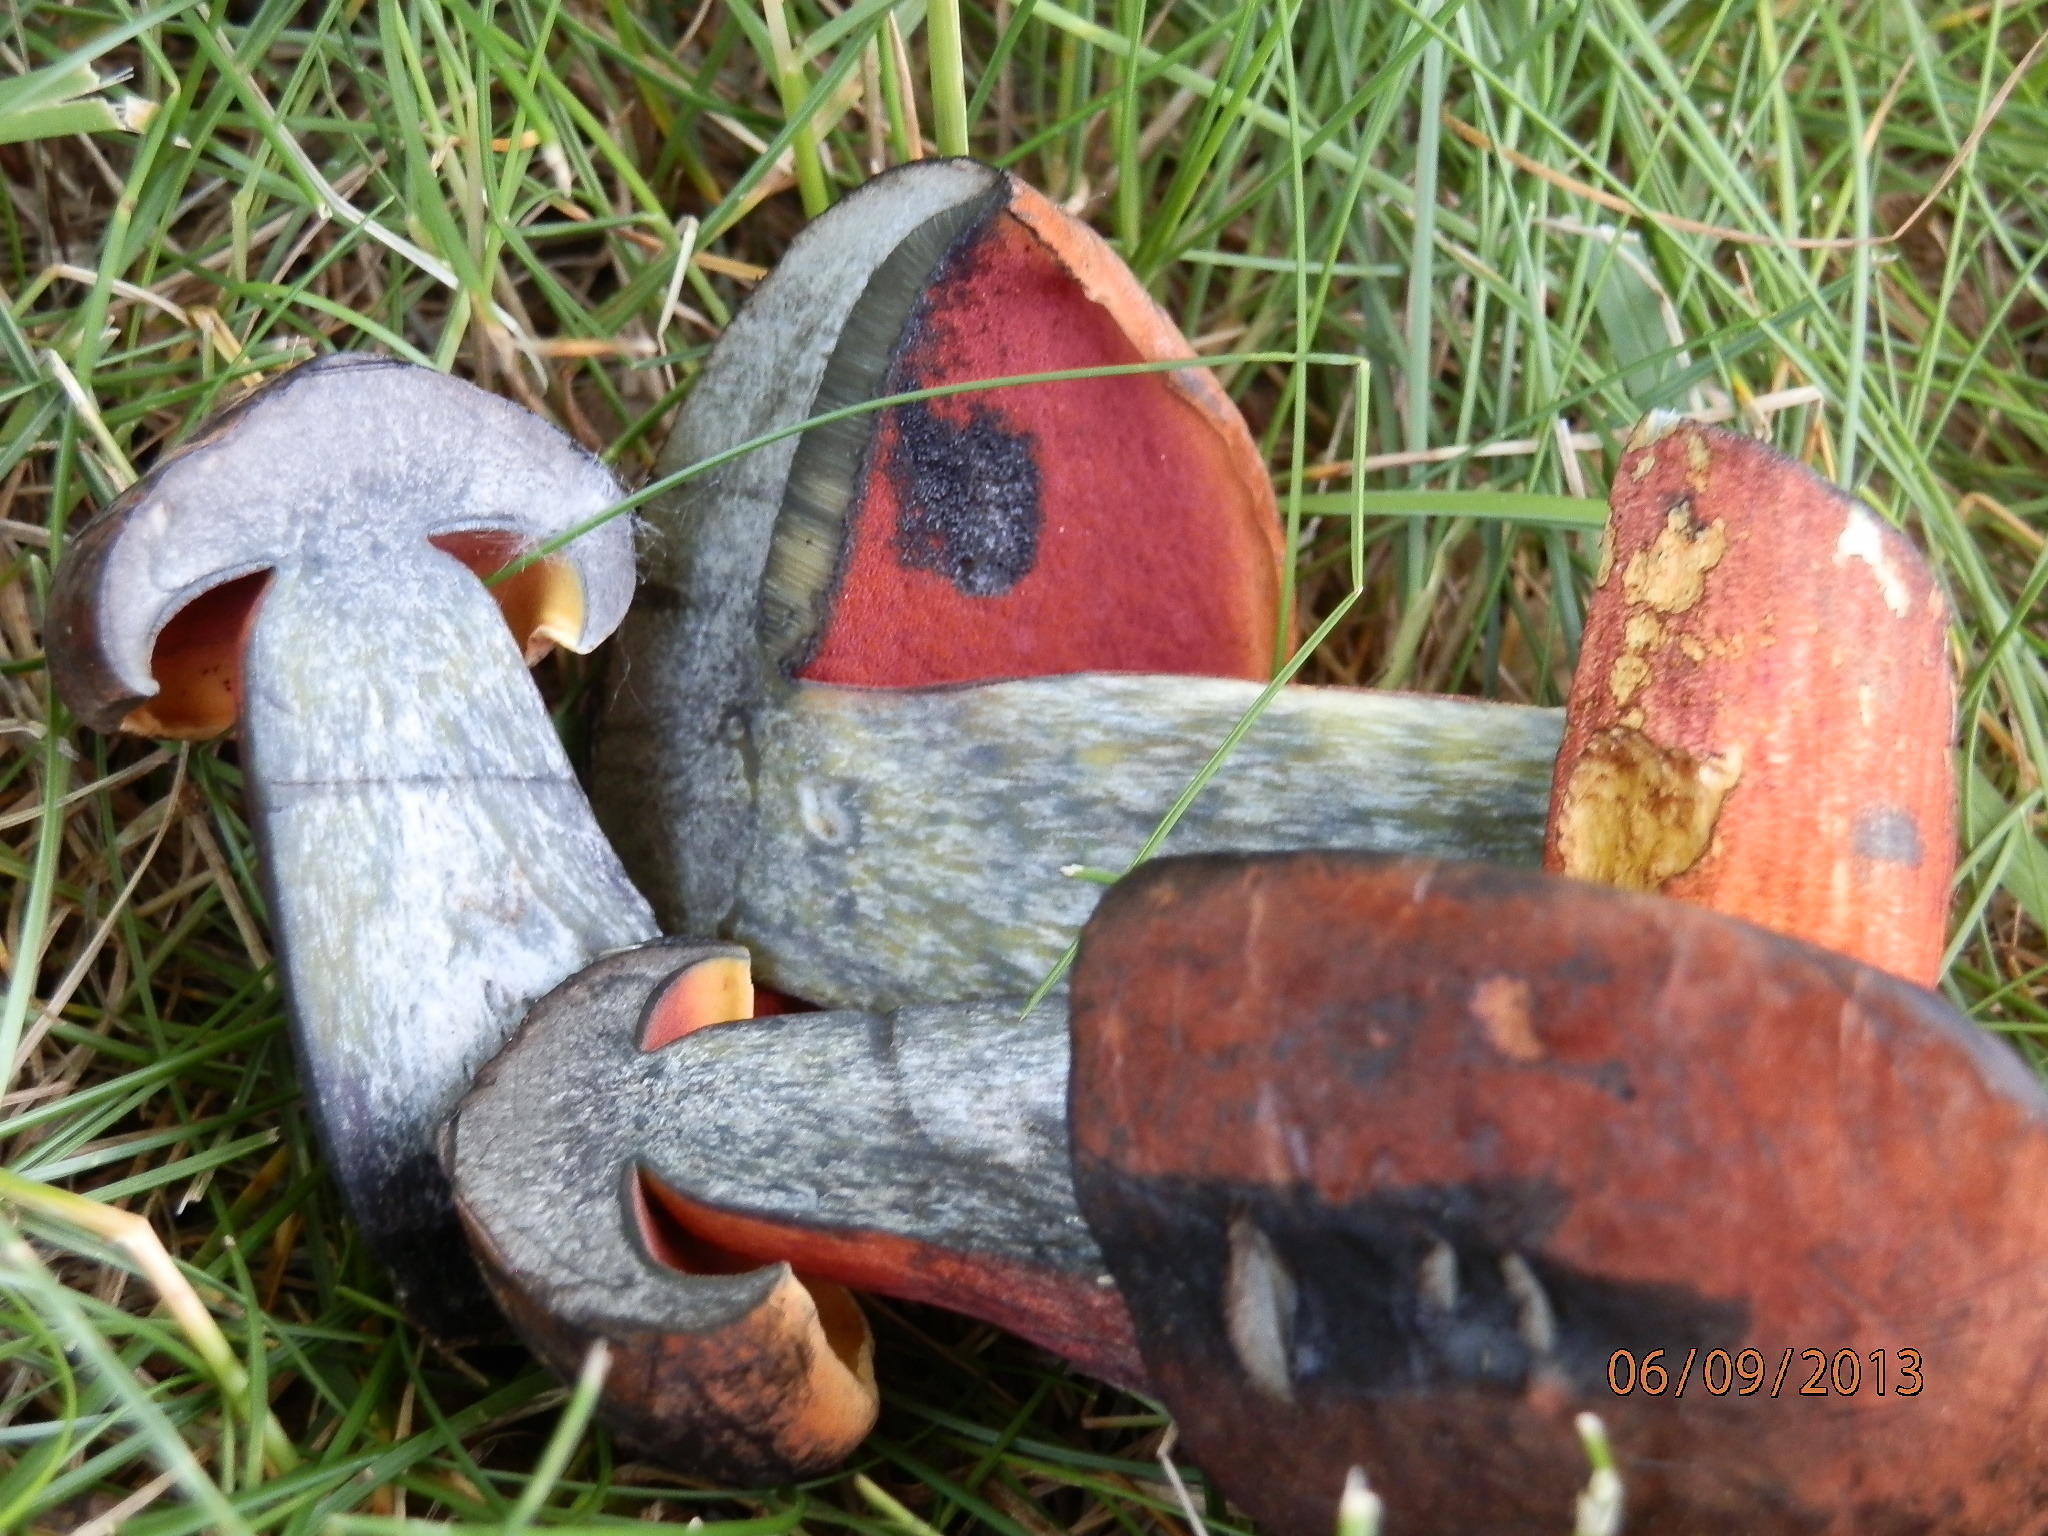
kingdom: Fungi
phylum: Basidiomycota
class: Agaricomycetes
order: Boletales
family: Boletaceae
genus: Boletus
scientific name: Boletus subvelutipes
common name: Red-mouth bolete
